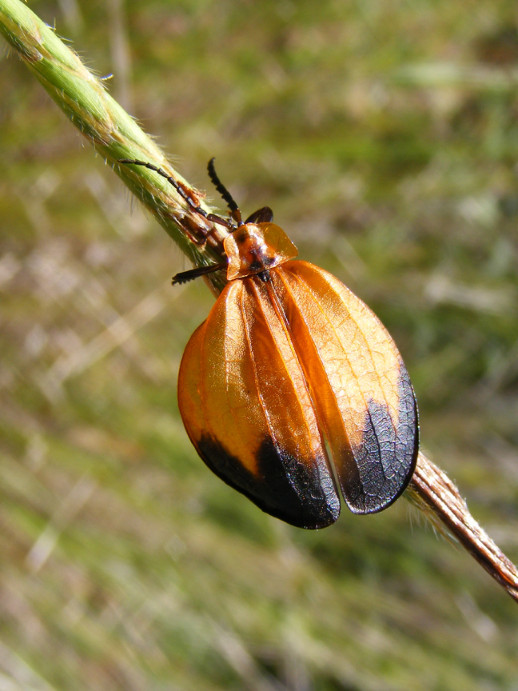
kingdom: Animalia
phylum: Arthropoda
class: Insecta
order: Coleoptera
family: Lycidae
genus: Lycus
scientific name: Lycus
